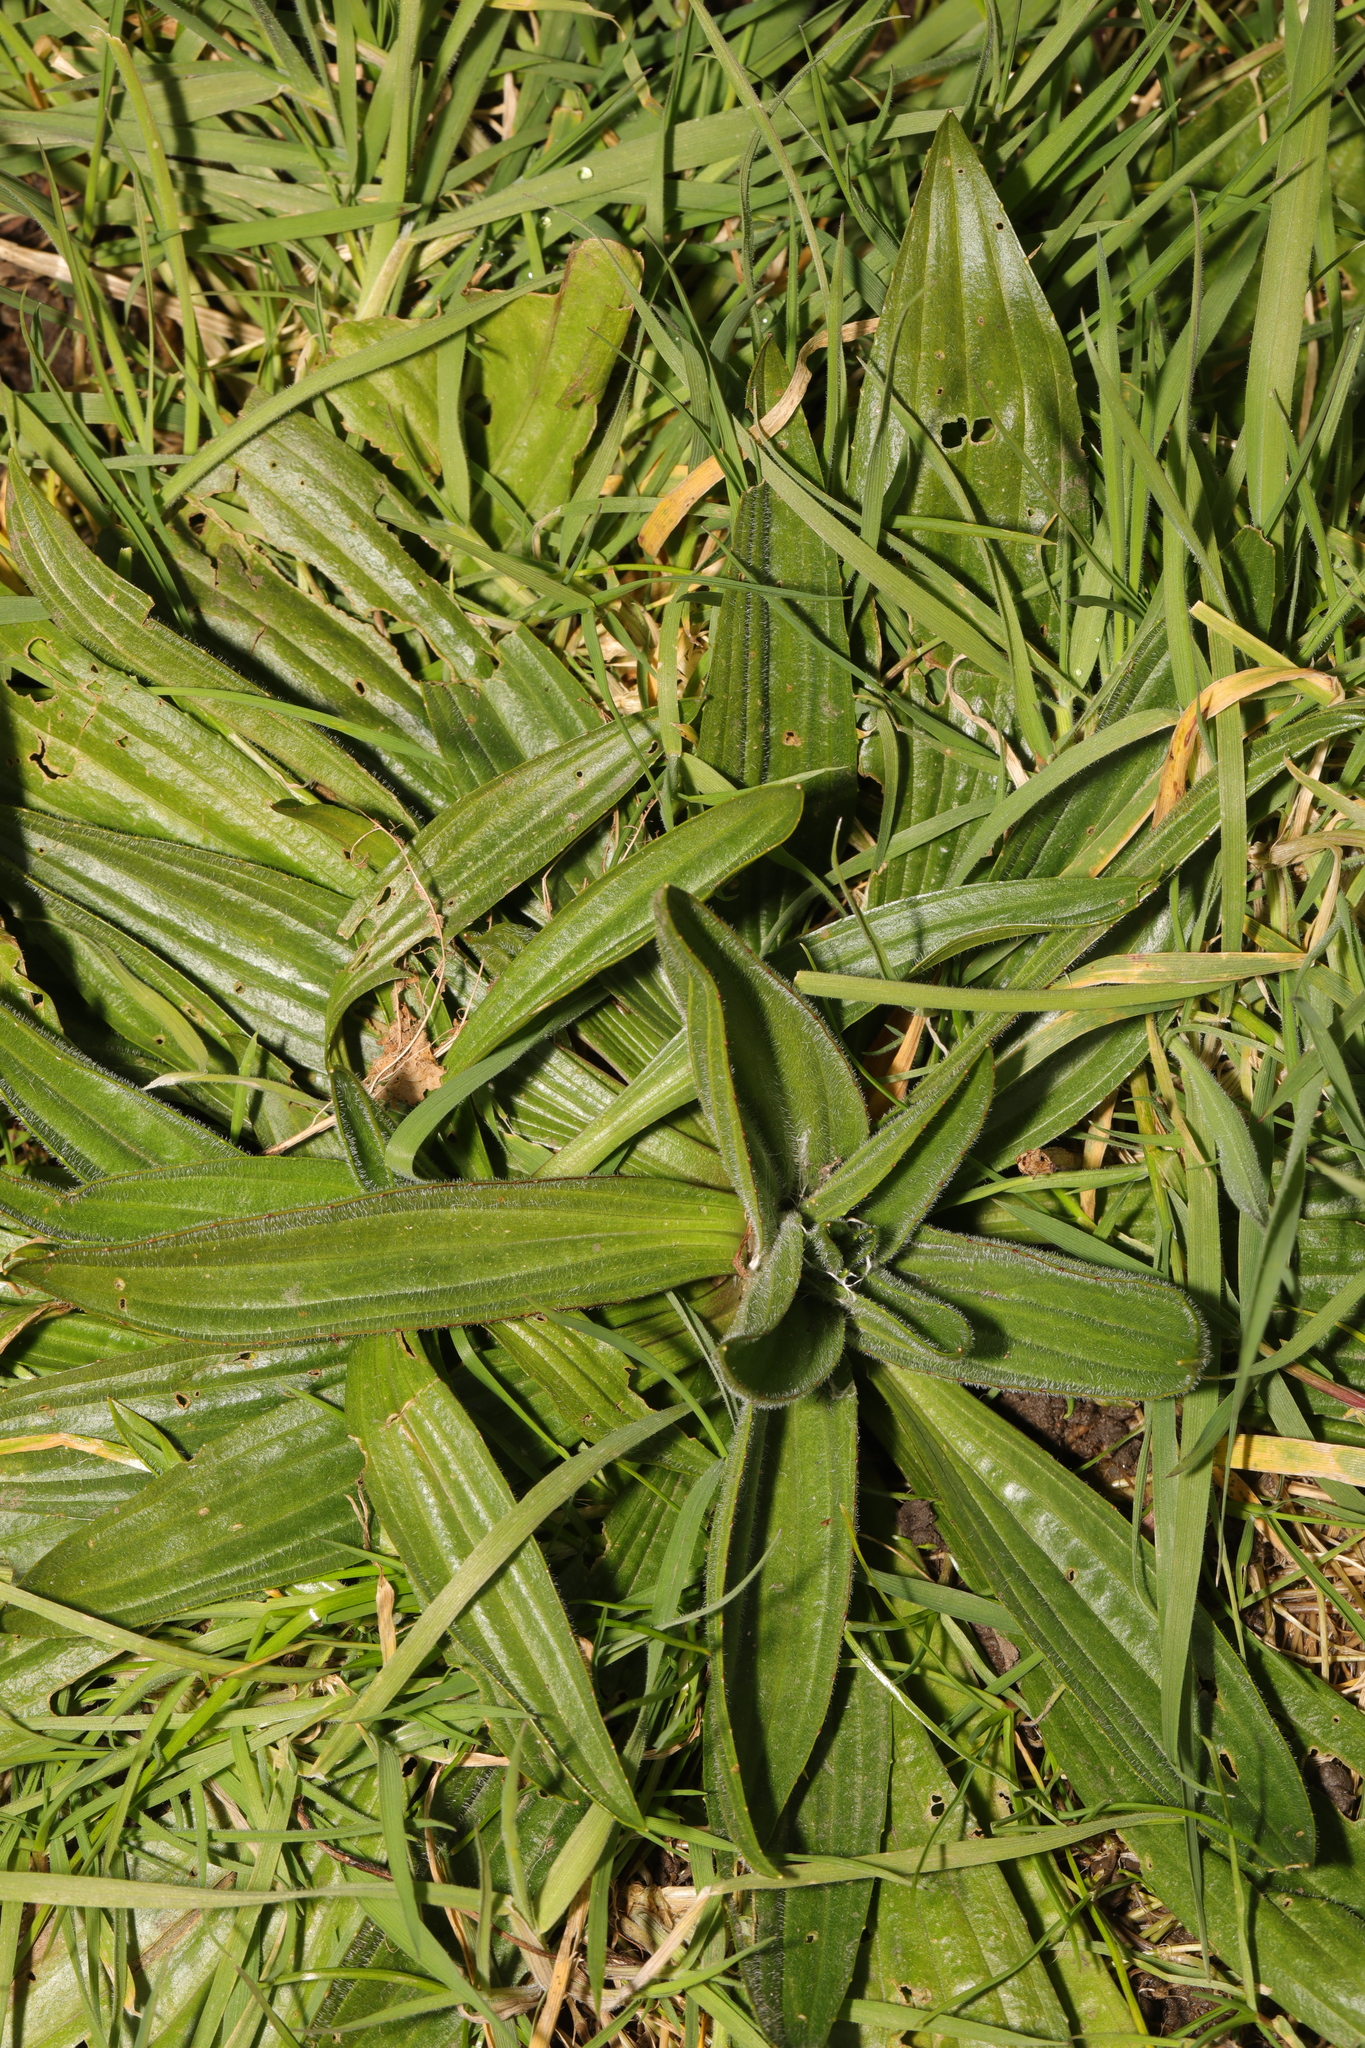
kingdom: Plantae
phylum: Tracheophyta
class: Magnoliopsida
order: Lamiales
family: Plantaginaceae
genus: Plantago
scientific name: Plantago lanceolata
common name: Ribwort plantain
